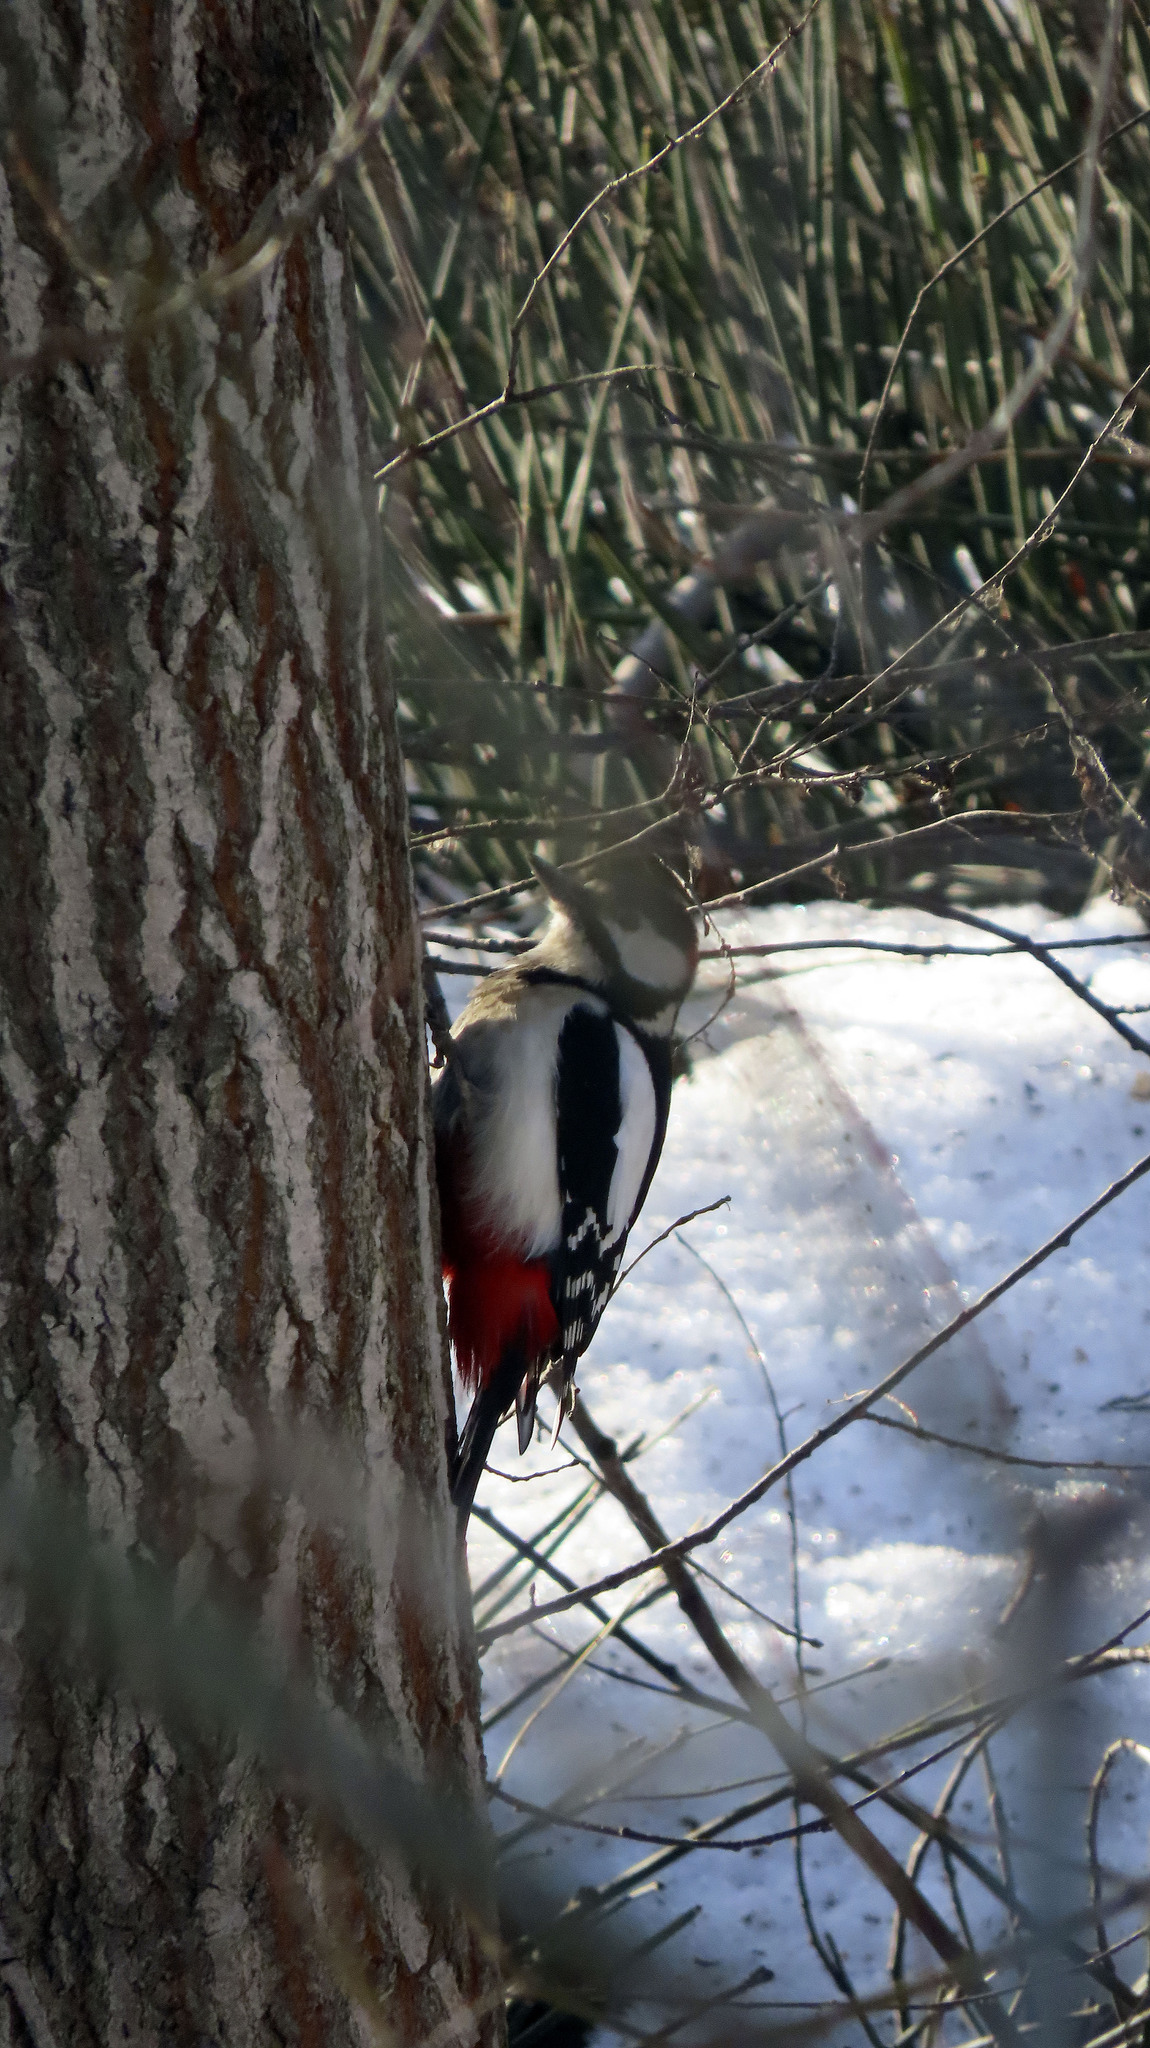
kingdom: Animalia
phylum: Chordata
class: Aves
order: Piciformes
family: Picidae
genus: Dendrocopos
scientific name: Dendrocopos major
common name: Great spotted woodpecker
